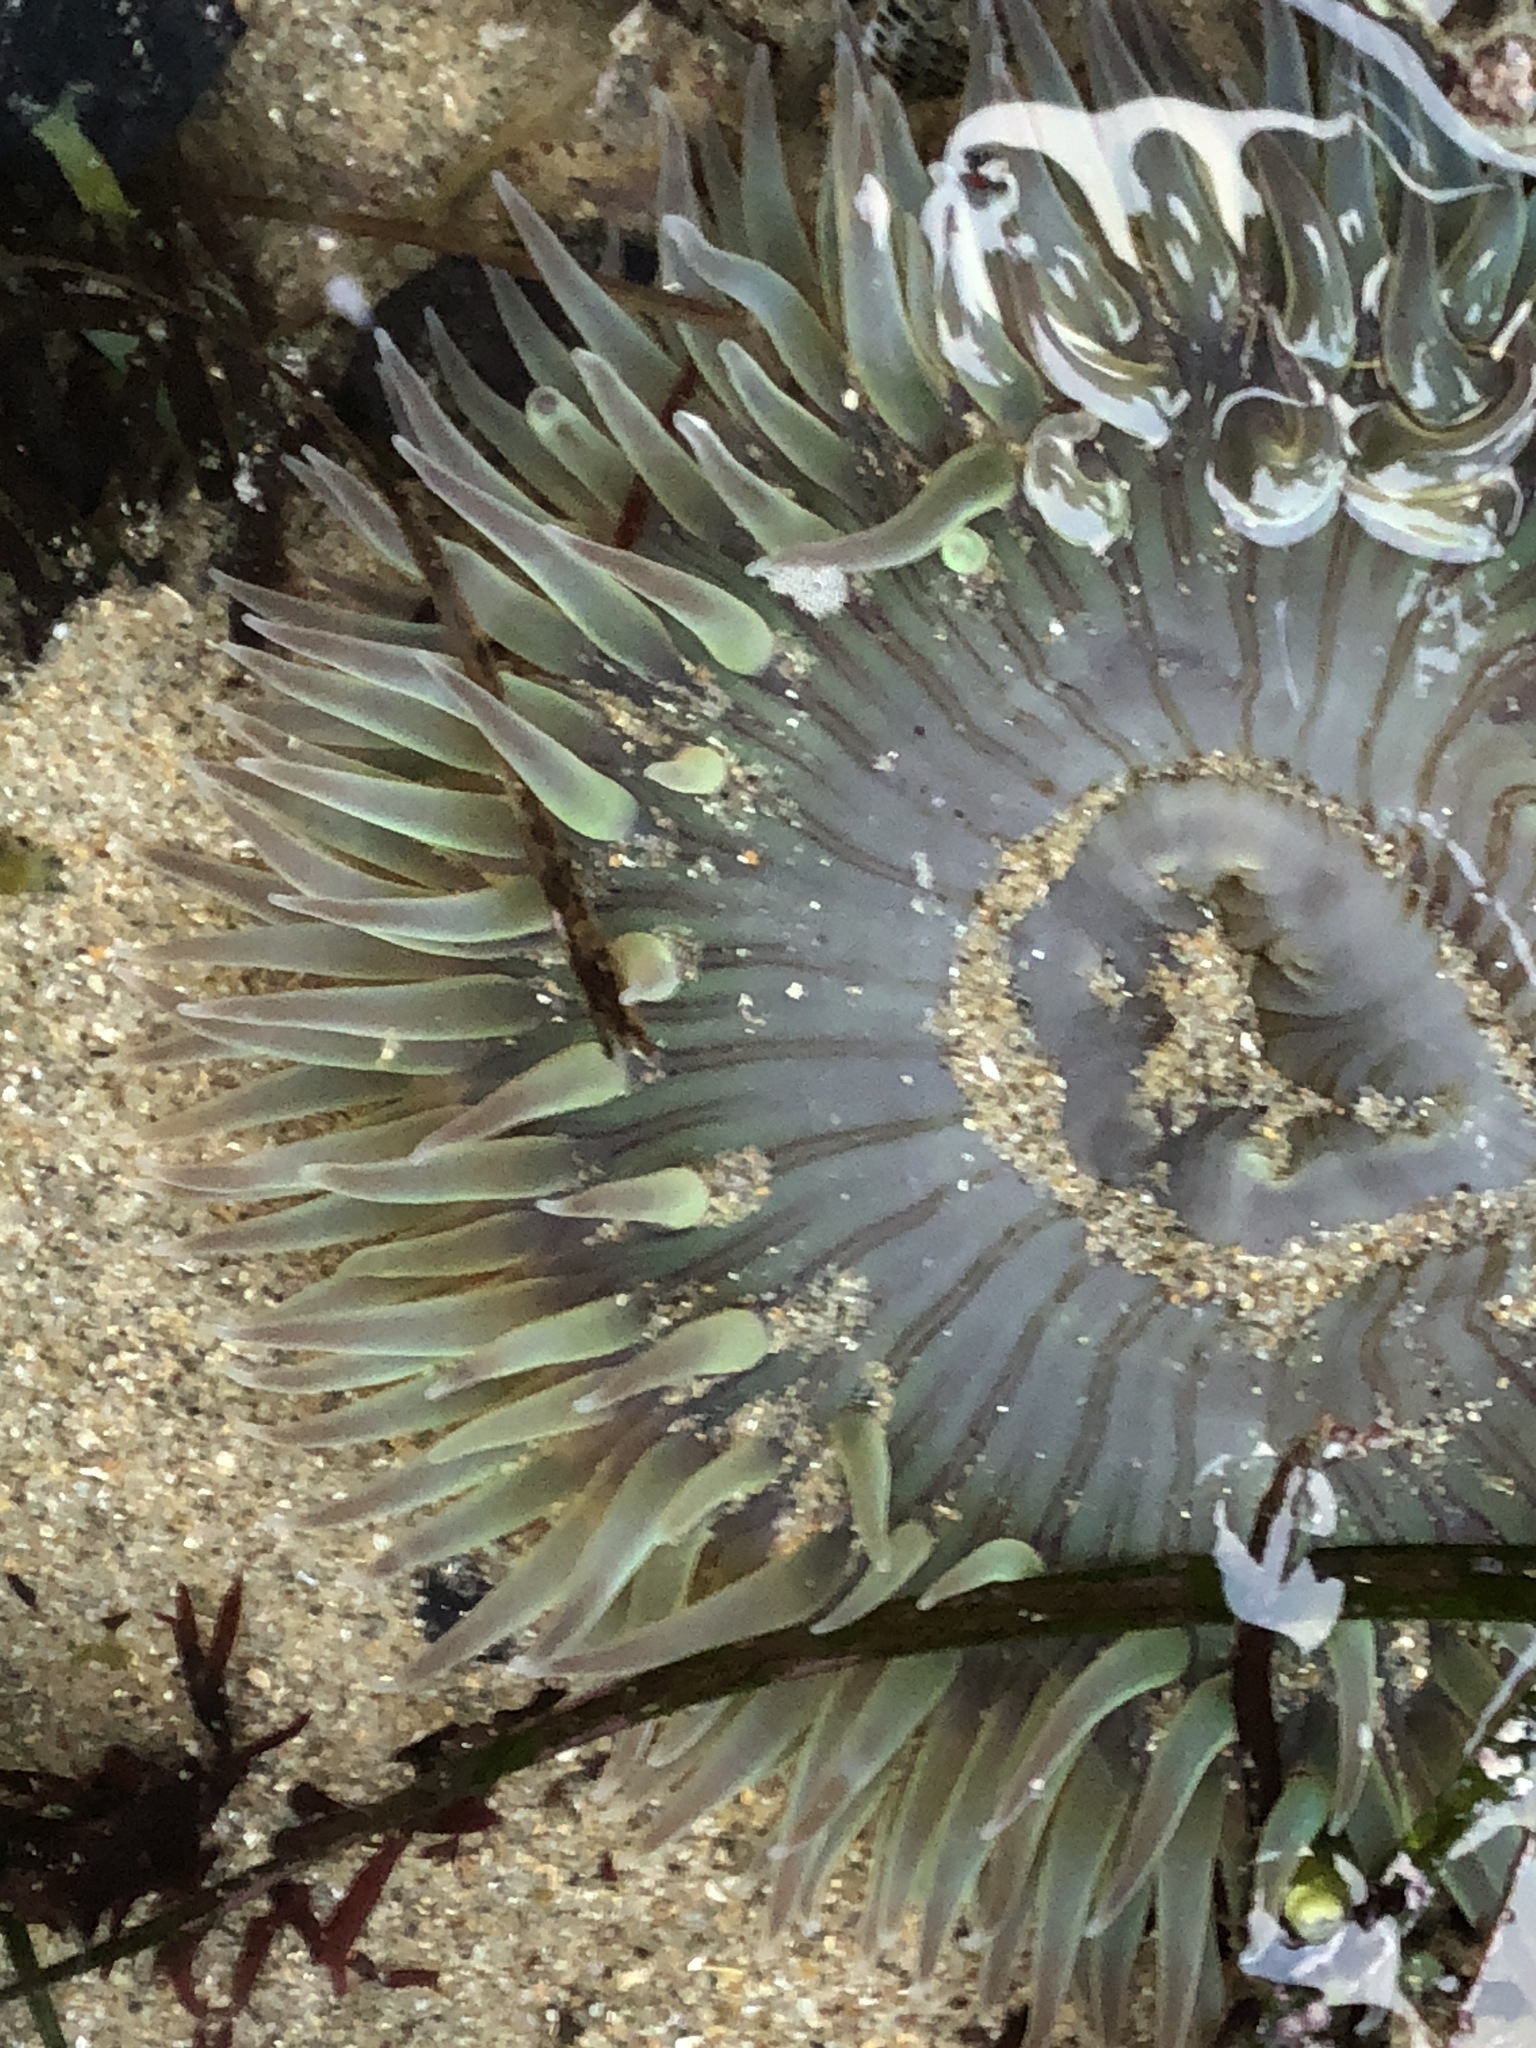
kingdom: Animalia
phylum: Cnidaria
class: Anthozoa
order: Actiniaria
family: Actiniidae
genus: Anthopleura
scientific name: Anthopleura sola
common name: Sun anemone
